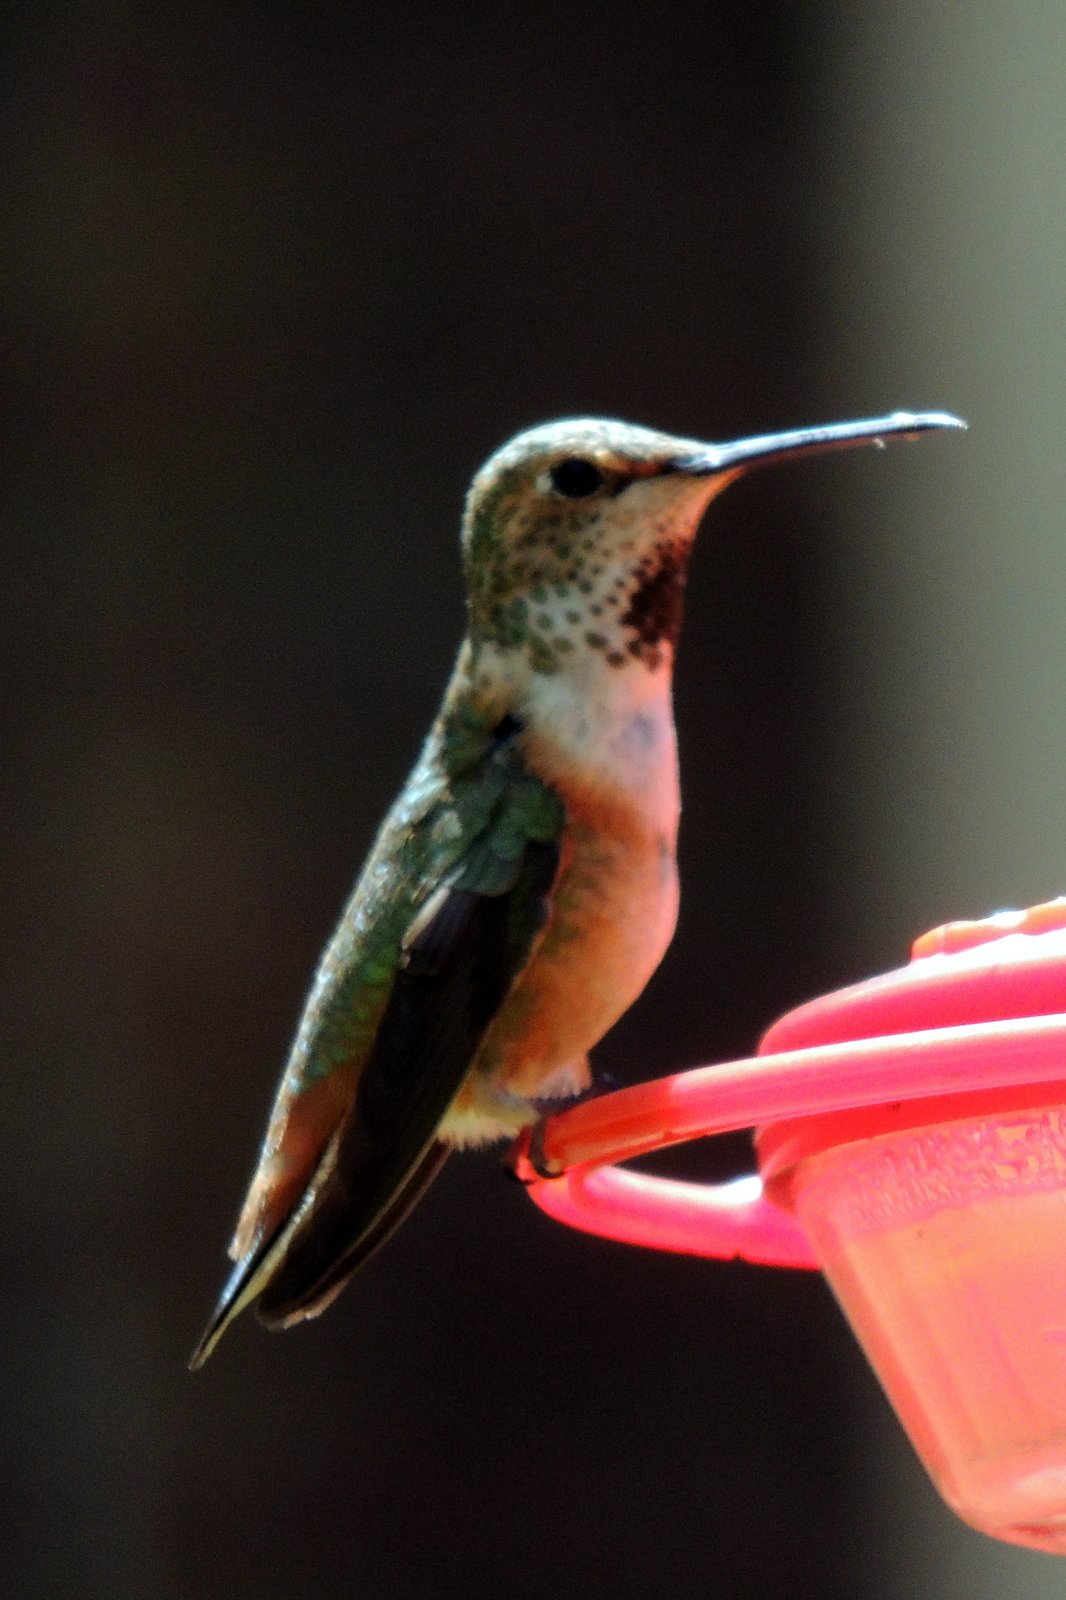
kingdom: Animalia
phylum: Chordata
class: Aves
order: Apodiformes
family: Trochilidae
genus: Selasphorus
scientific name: Selasphorus
